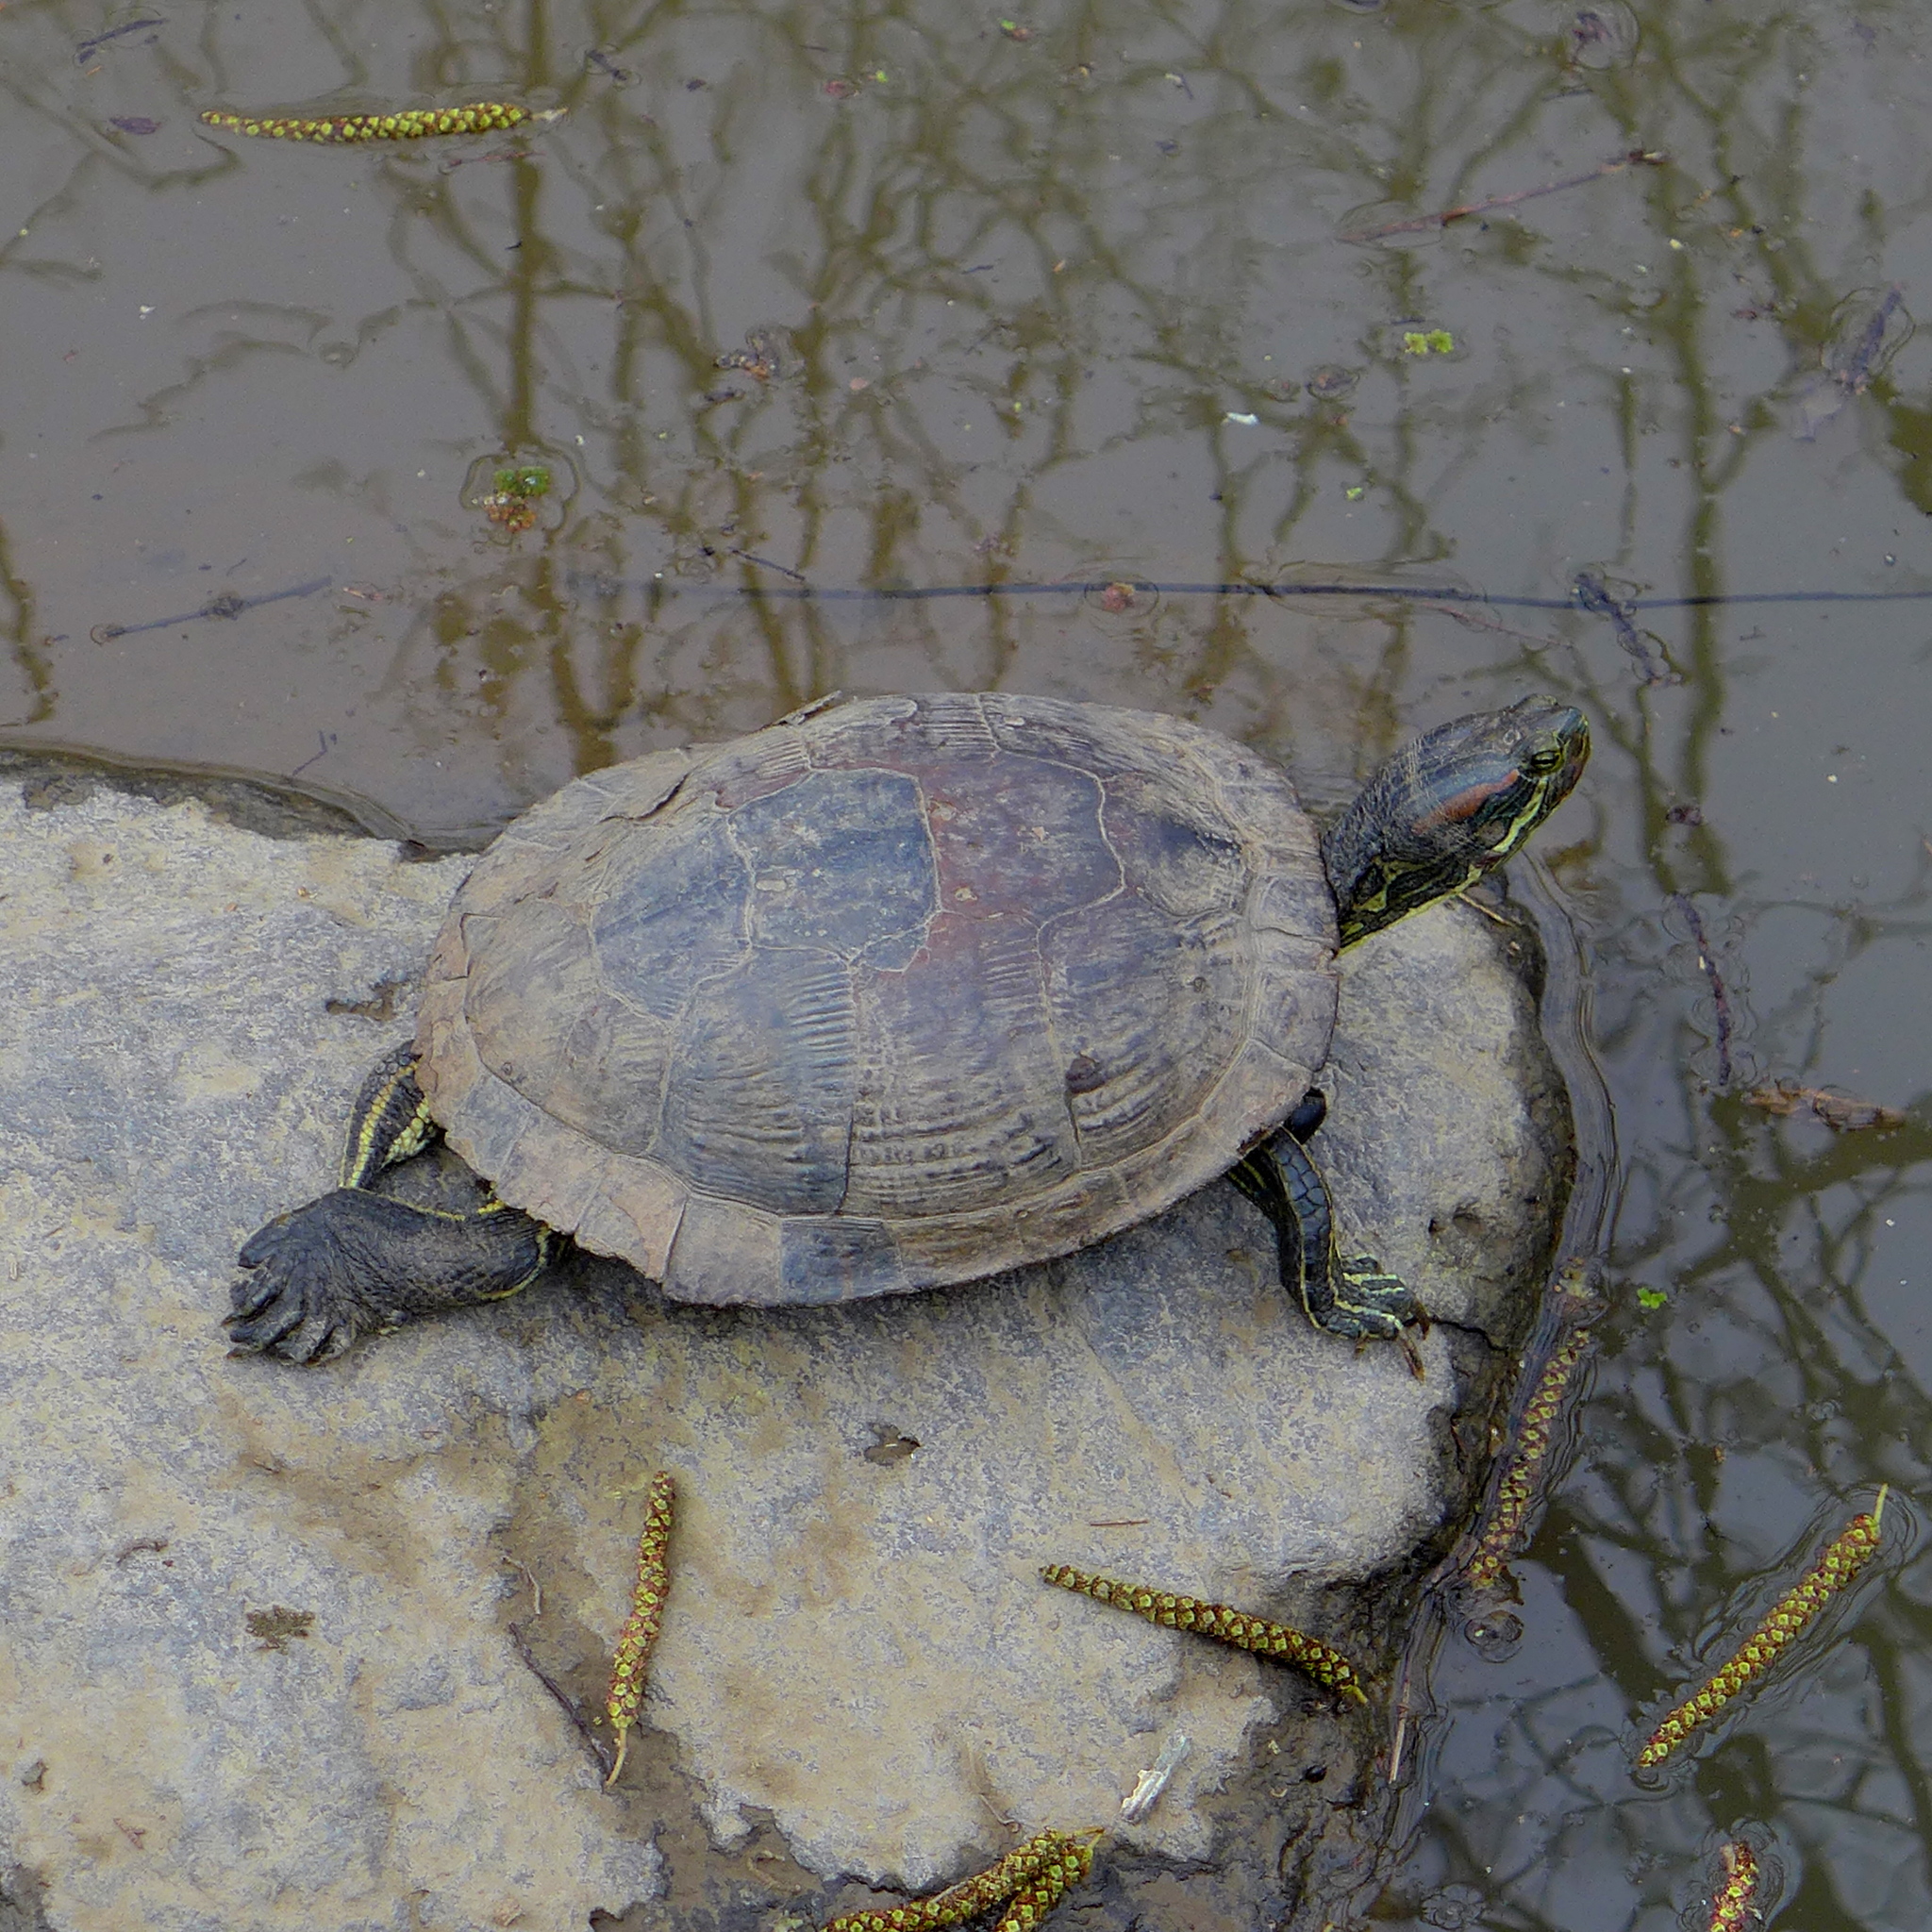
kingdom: Animalia
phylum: Chordata
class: Testudines
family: Emydidae
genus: Trachemys
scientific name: Trachemys scripta
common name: Slider
